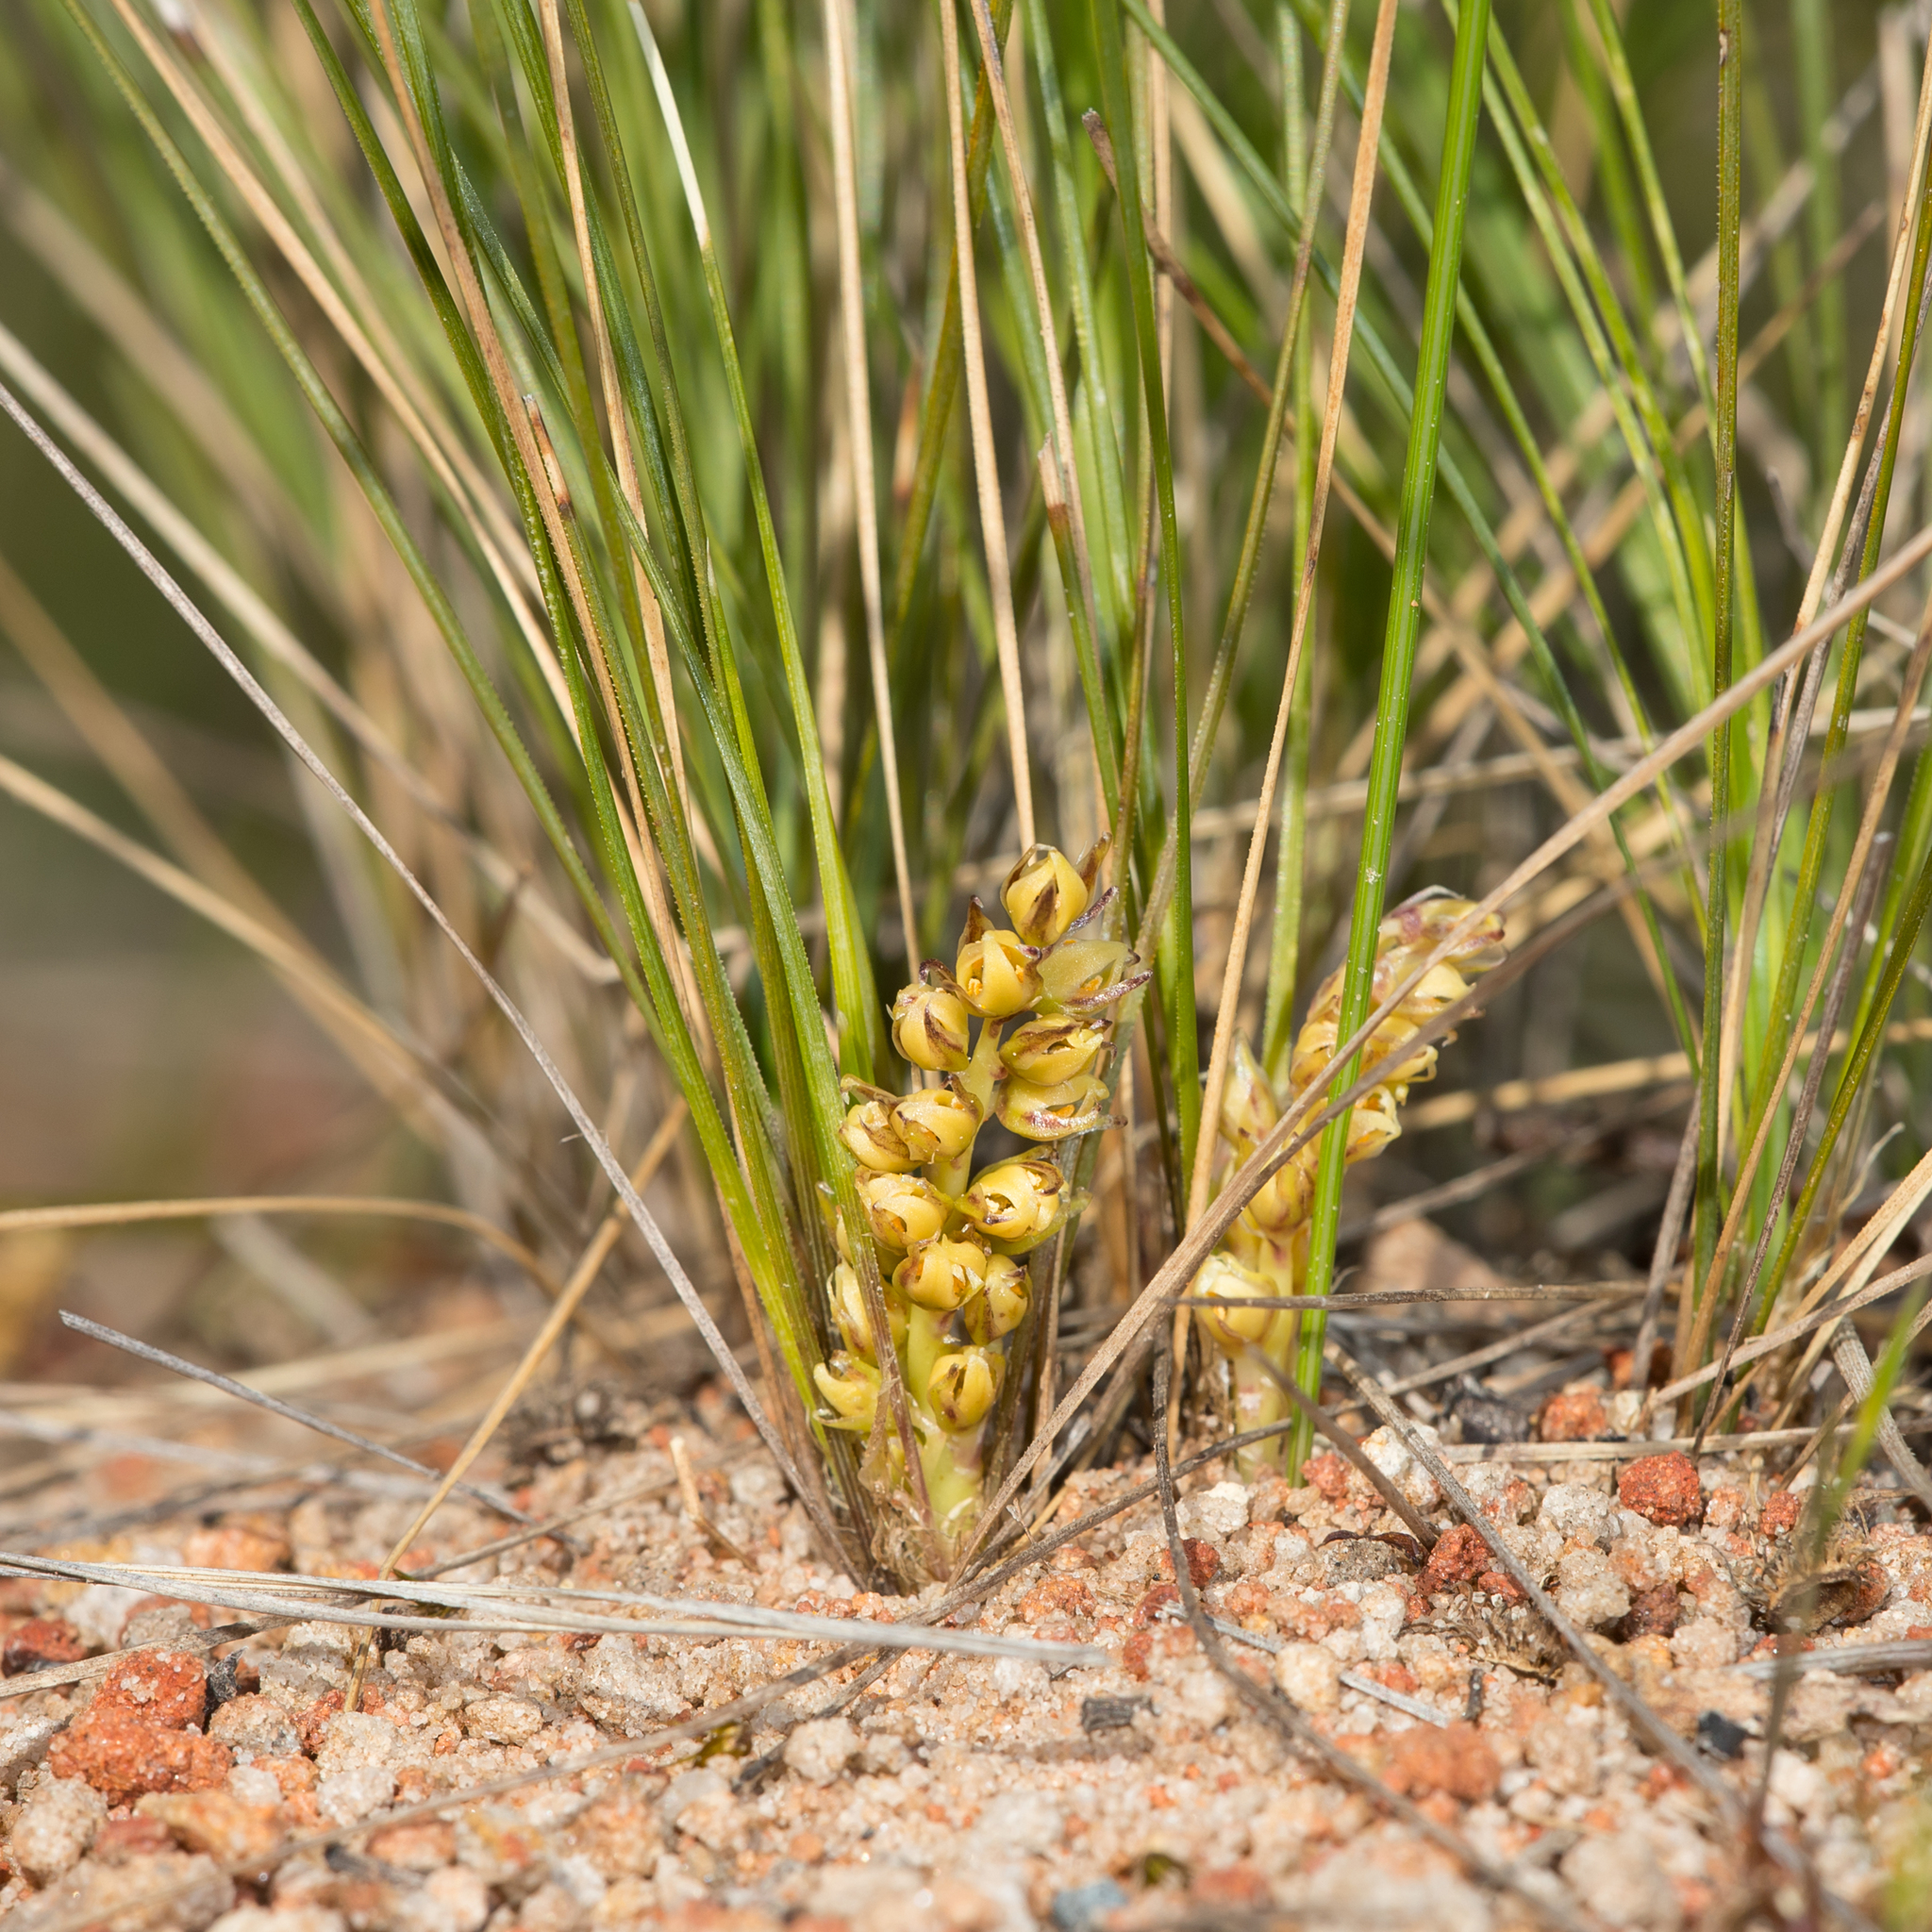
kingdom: Plantae
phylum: Tracheophyta
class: Liliopsida
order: Asparagales
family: Asparagaceae
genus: Lomandra
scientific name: Lomandra fibrata
